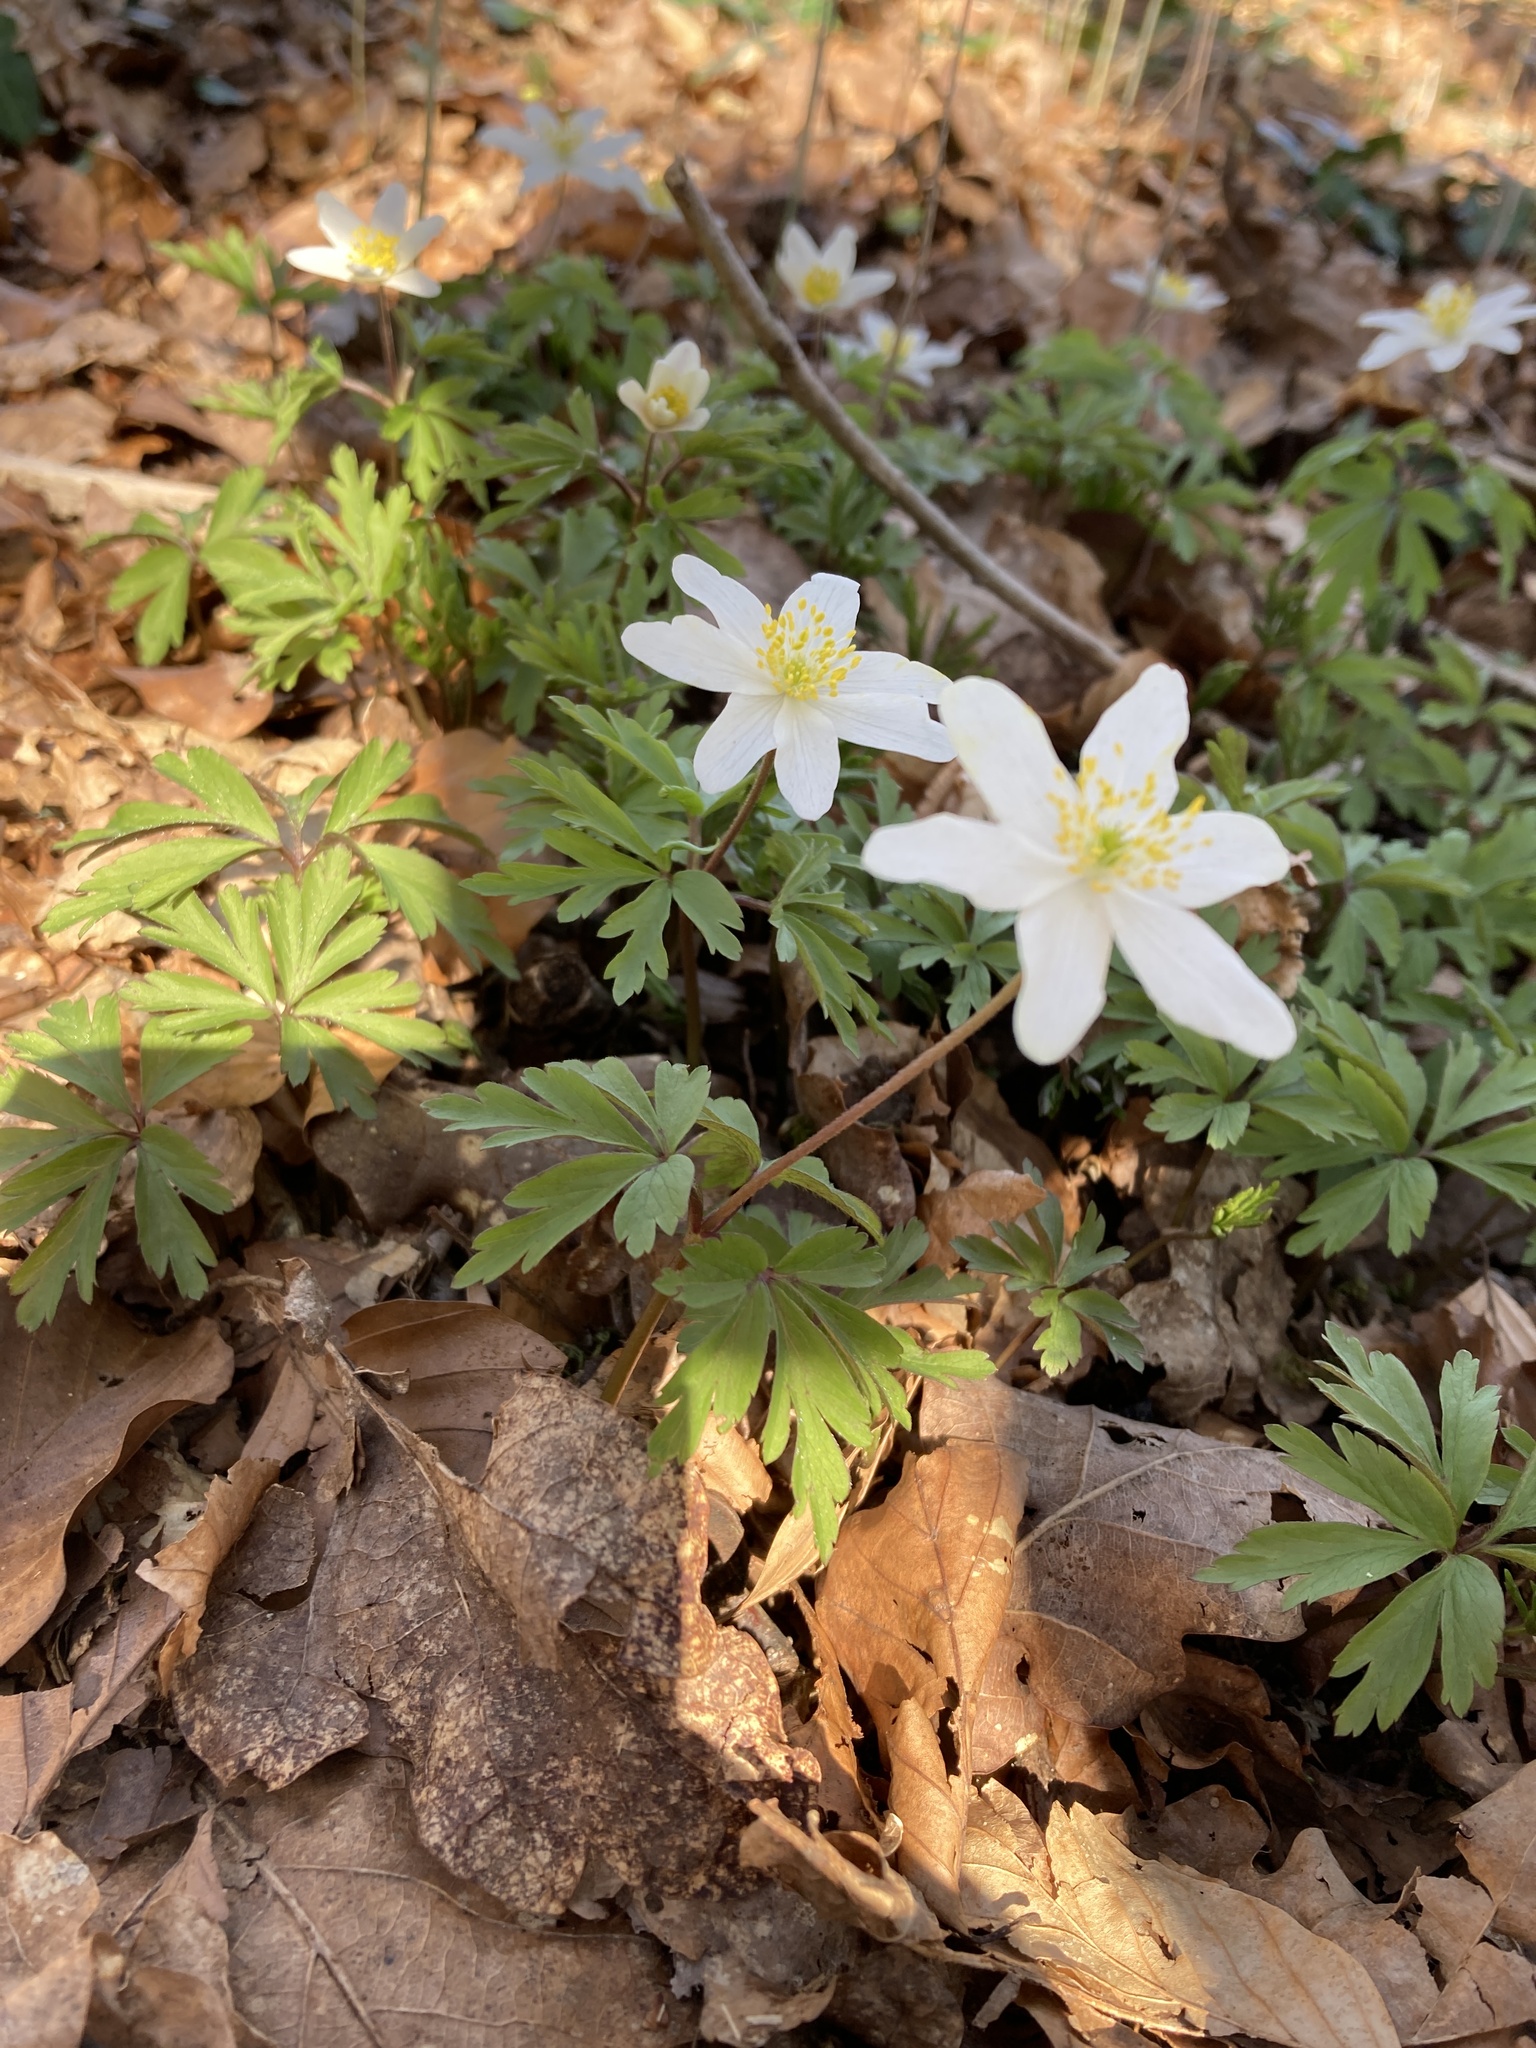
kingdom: Plantae
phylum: Tracheophyta
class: Magnoliopsida
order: Ranunculales
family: Ranunculaceae
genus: Anemone
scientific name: Anemone nemorosa
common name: Wood anemone
